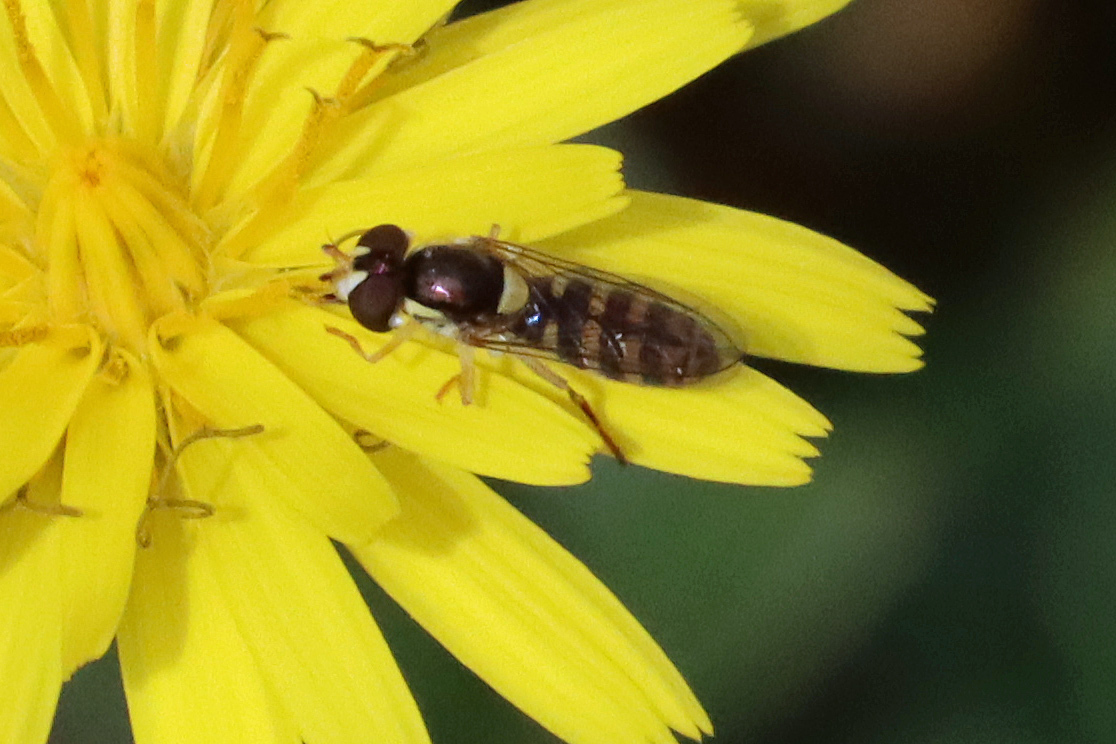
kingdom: Animalia
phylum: Arthropoda
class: Insecta
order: Diptera
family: Syrphidae
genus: Sphaerophoria
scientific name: Sphaerophoria rueppellii
